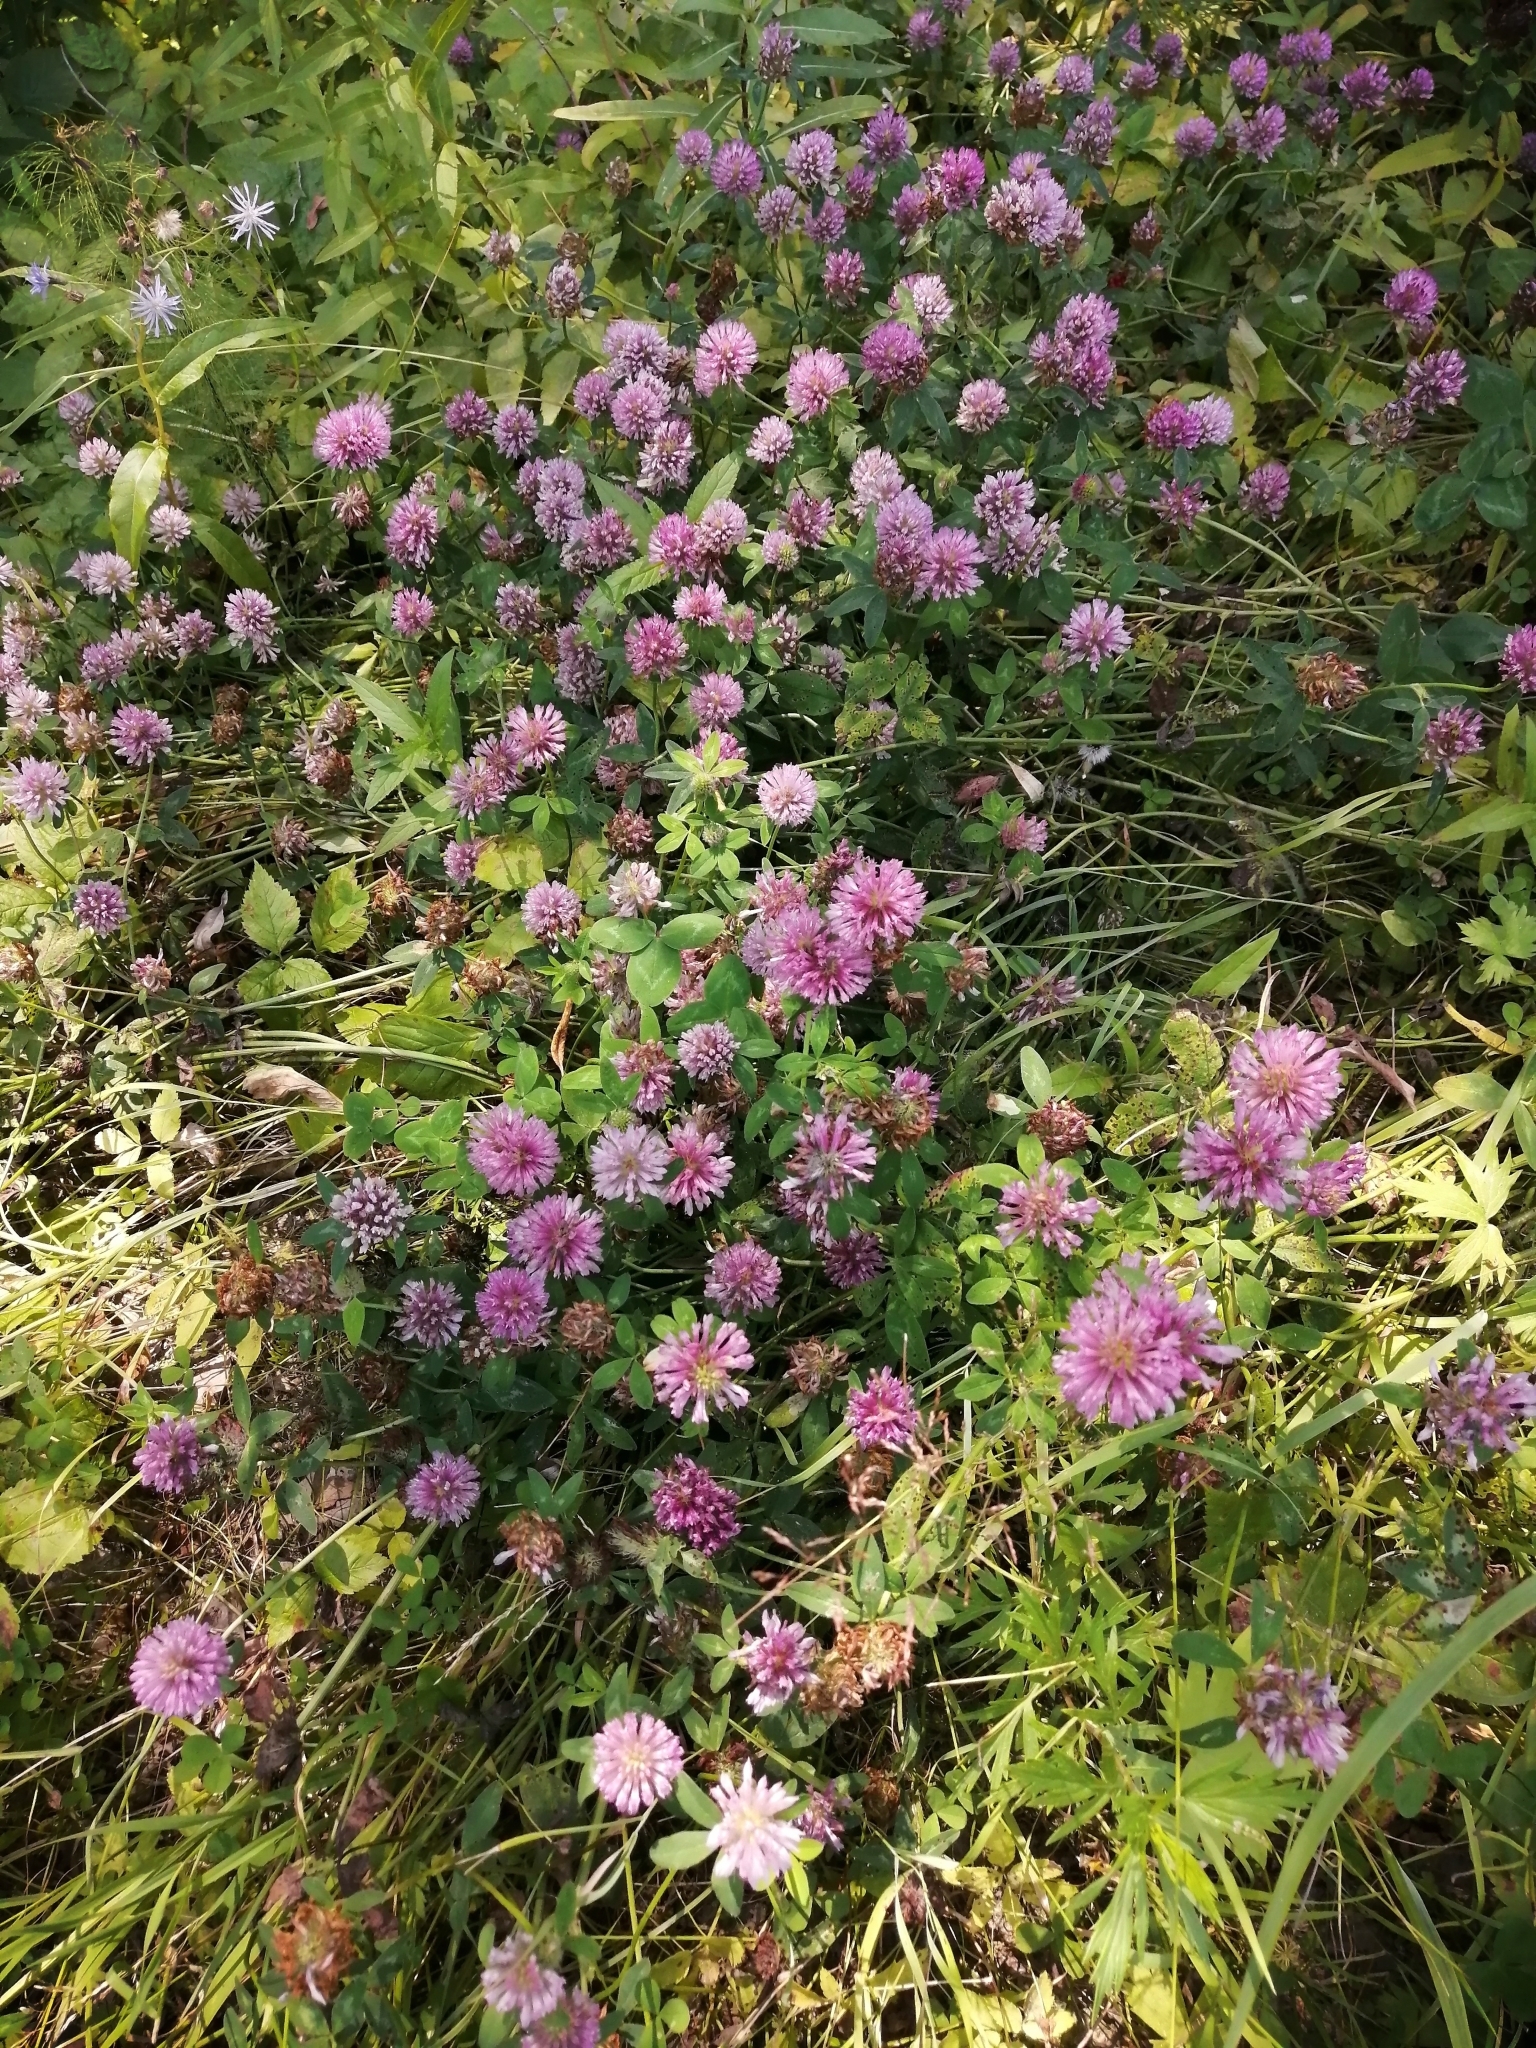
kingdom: Plantae
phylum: Tracheophyta
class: Magnoliopsida
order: Fabales
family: Fabaceae
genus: Trifolium
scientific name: Trifolium pratense
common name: Red clover
